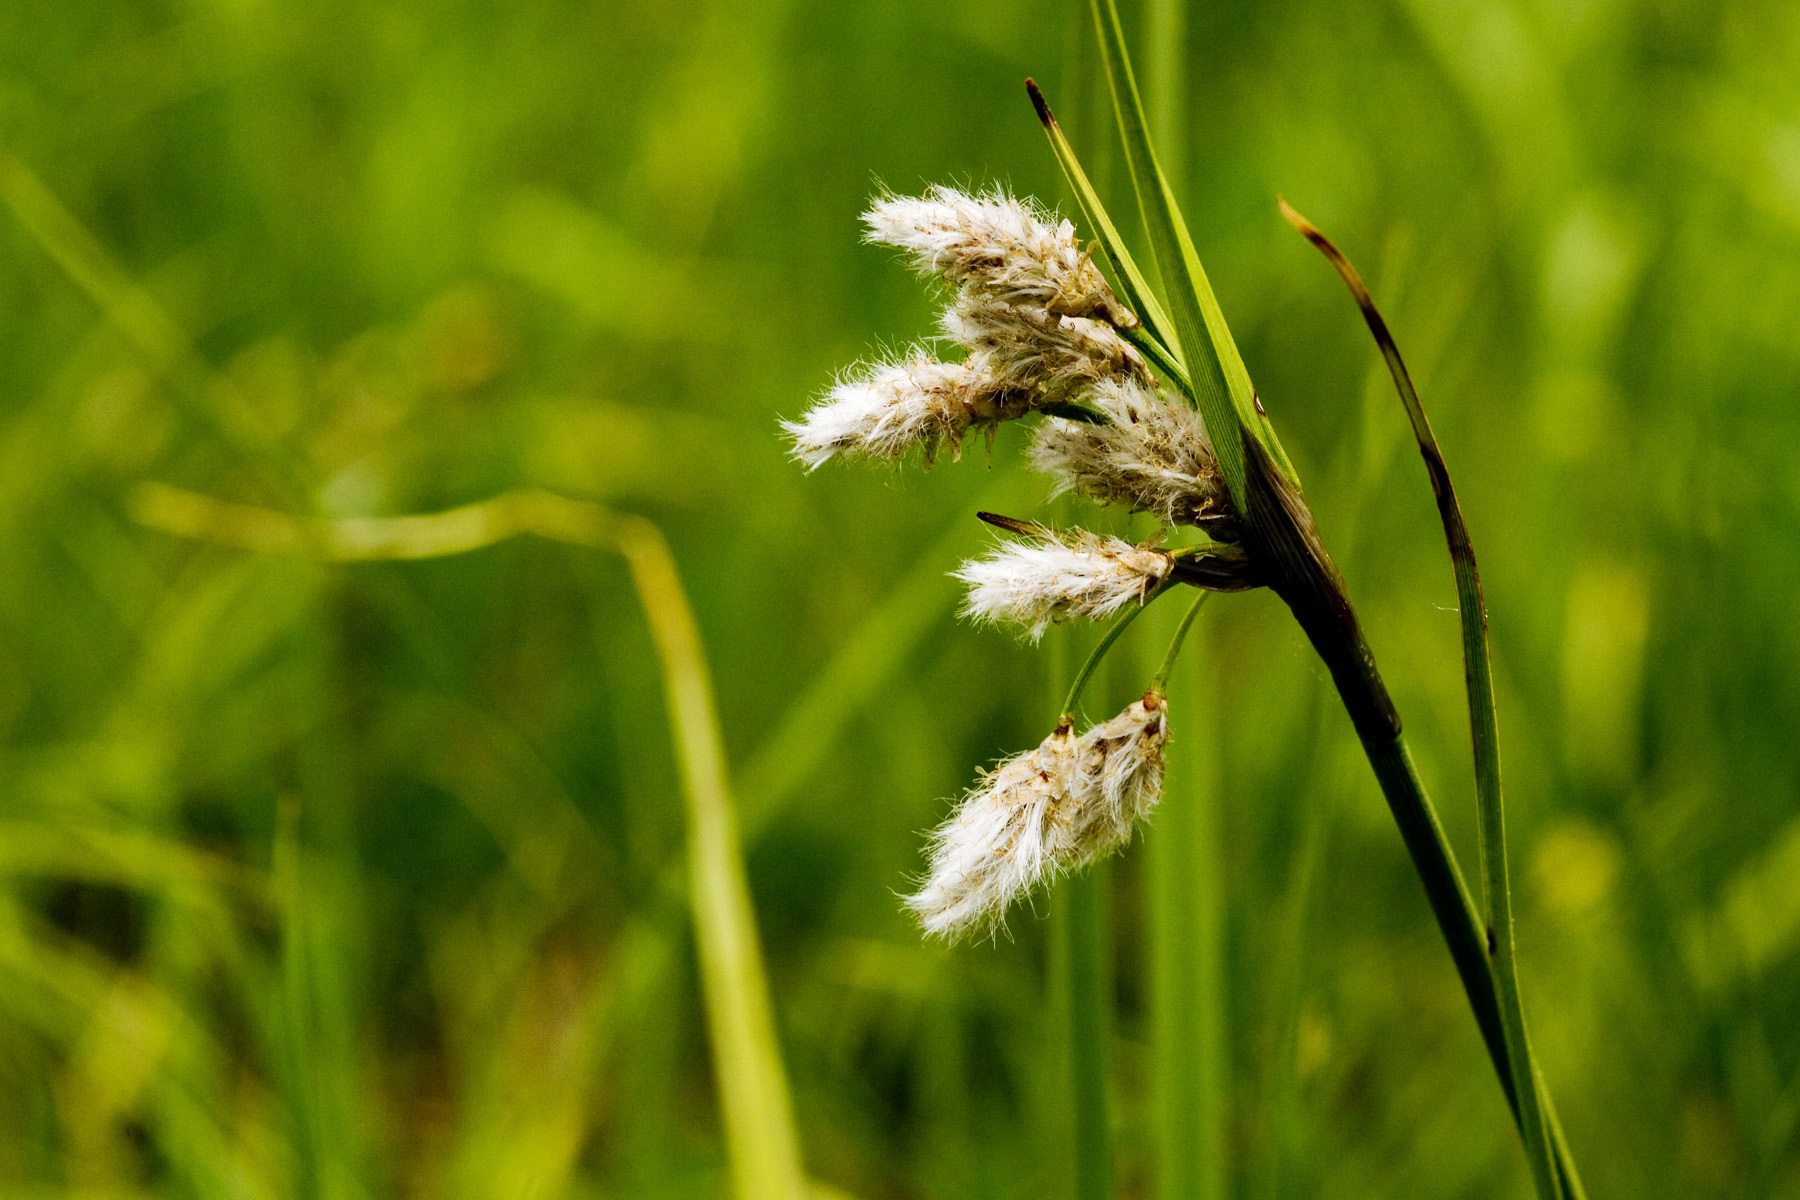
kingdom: Plantae
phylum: Tracheophyta
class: Liliopsida
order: Poales
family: Cyperaceae
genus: Eriophorum
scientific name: Eriophorum angustifolium
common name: Common cottongrass
